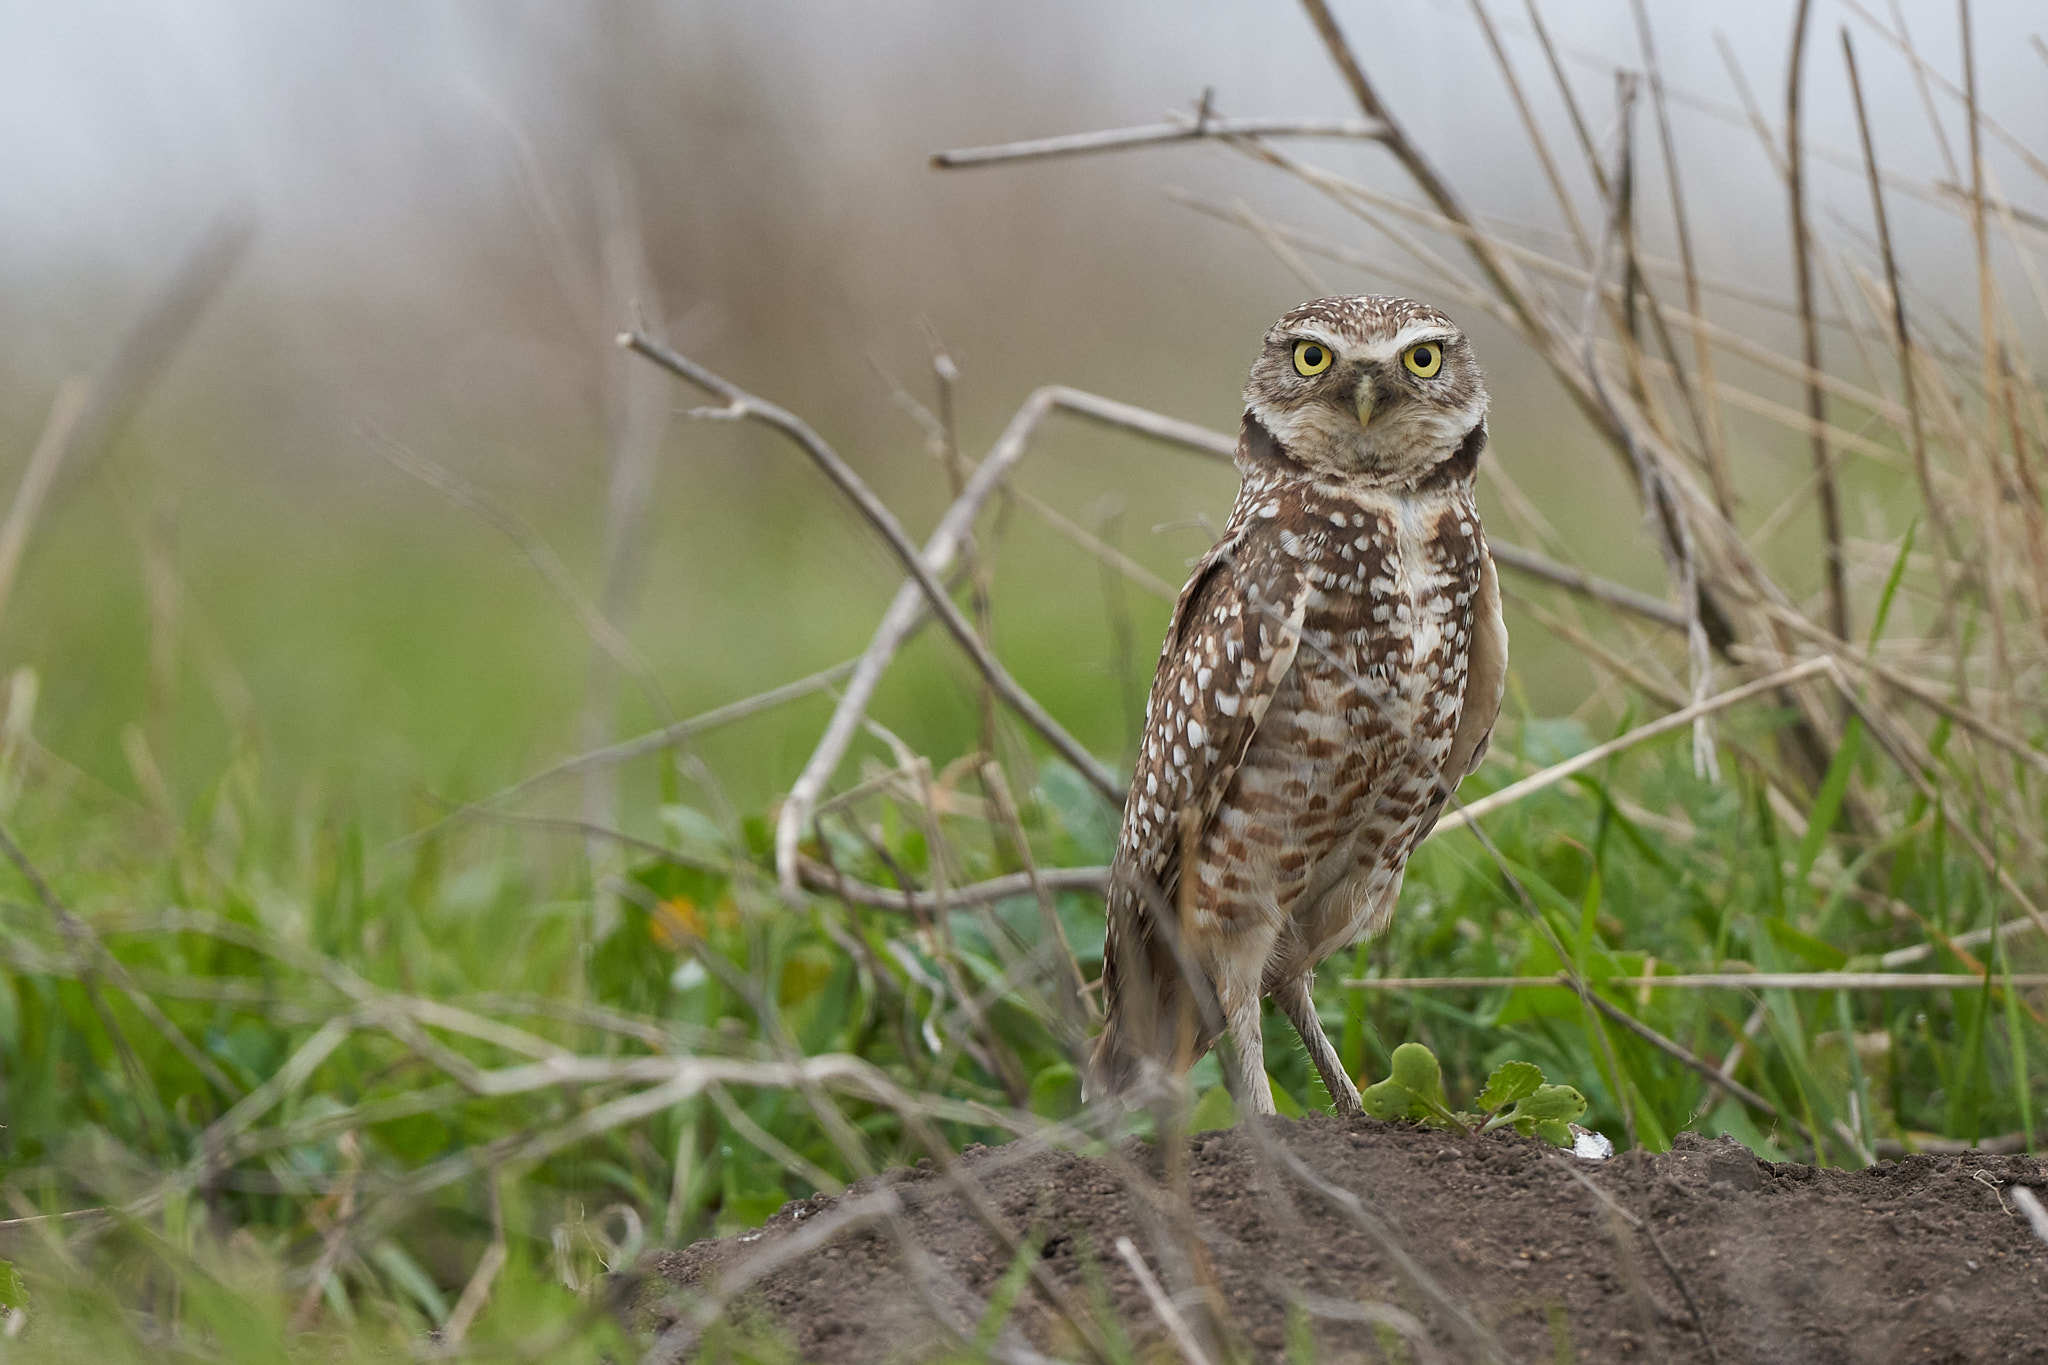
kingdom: Animalia
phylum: Chordata
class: Aves
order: Strigiformes
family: Strigidae
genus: Athene
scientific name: Athene cunicularia
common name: Burrowing owl
